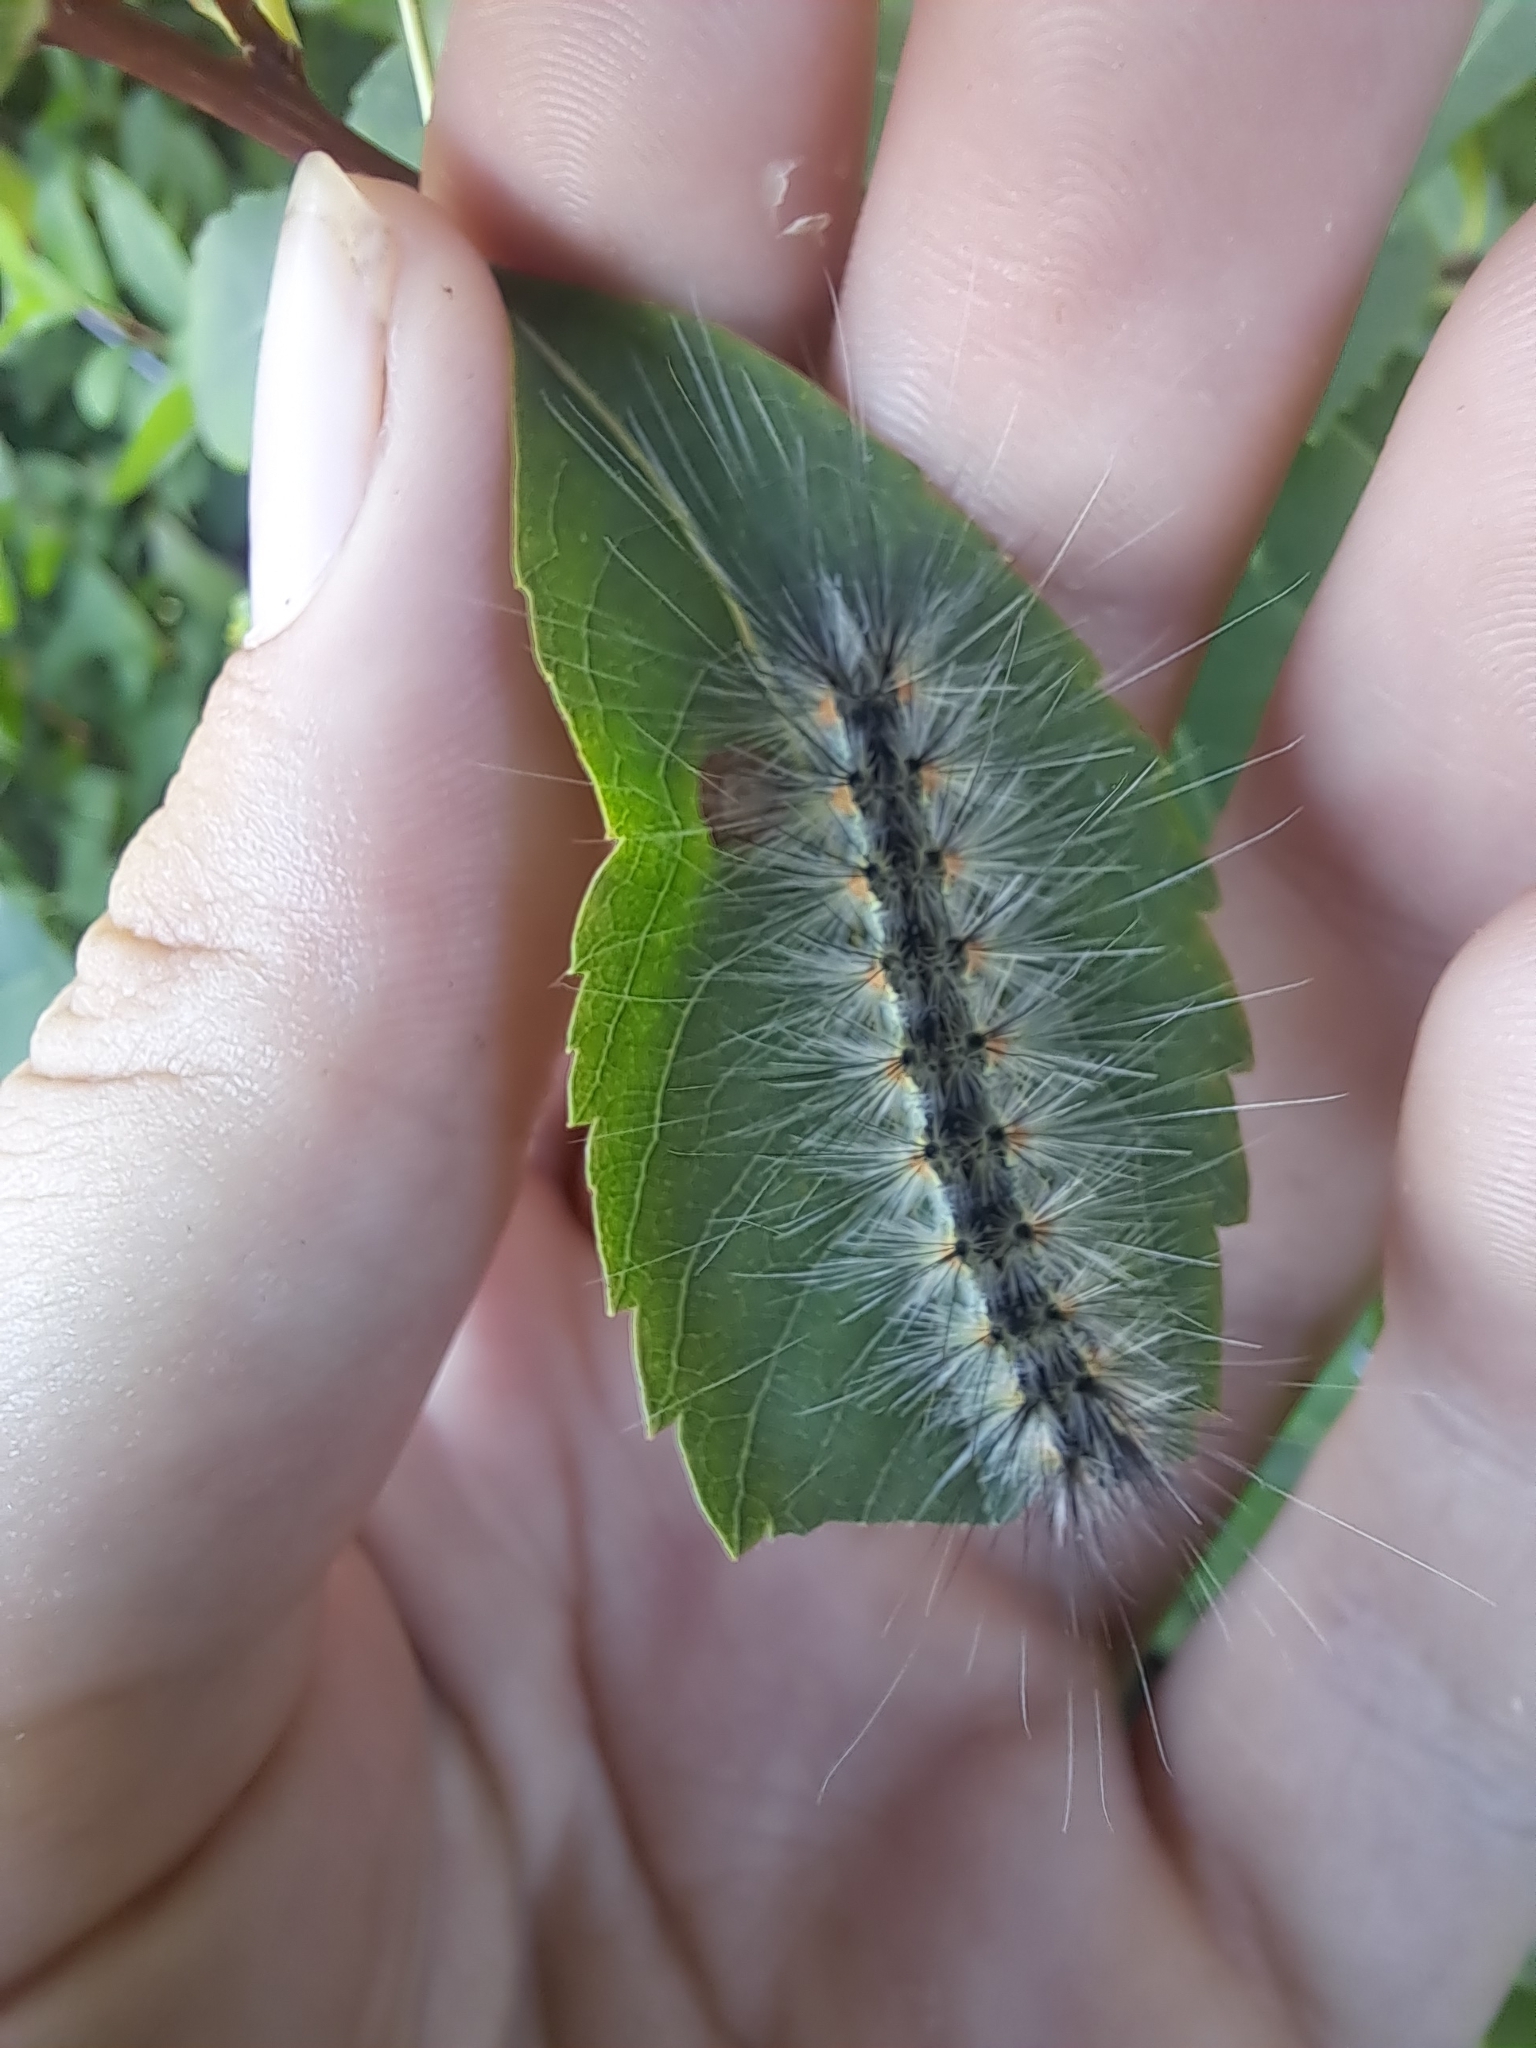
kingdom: Animalia
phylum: Arthropoda
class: Insecta
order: Lepidoptera
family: Erebidae
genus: Hyphantria
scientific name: Hyphantria cunea
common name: American white moth
